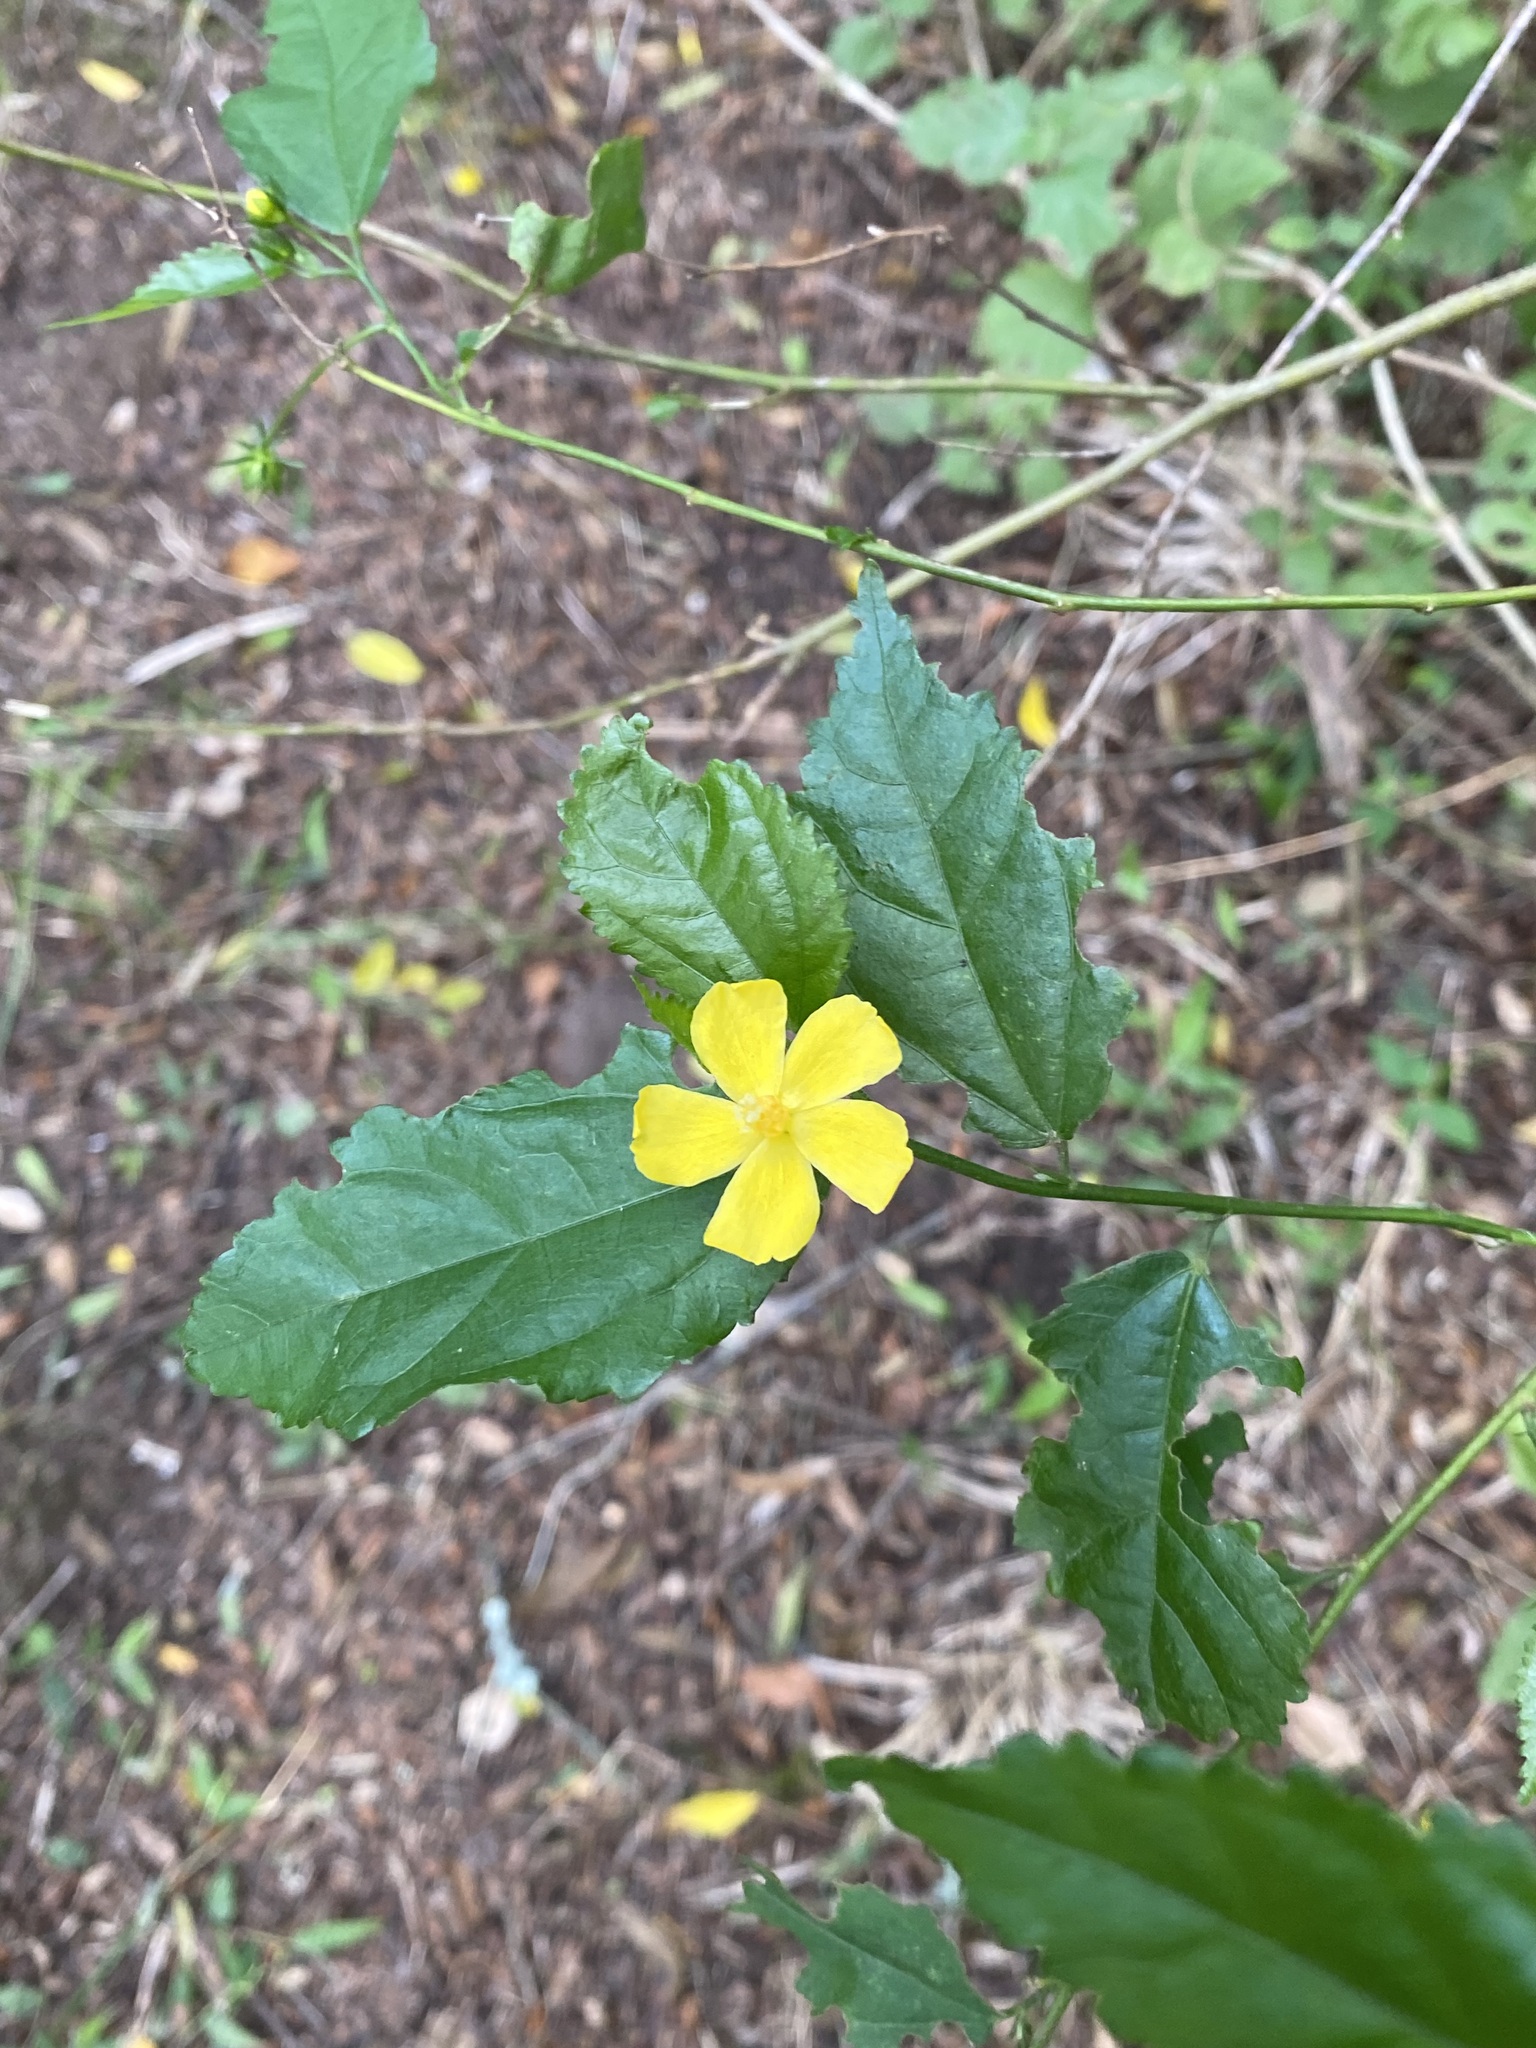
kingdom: Plantae
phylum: Tracheophyta
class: Magnoliopsida
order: Malvales
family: Malvaceae
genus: Pavonia
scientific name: Pavonia sepium
